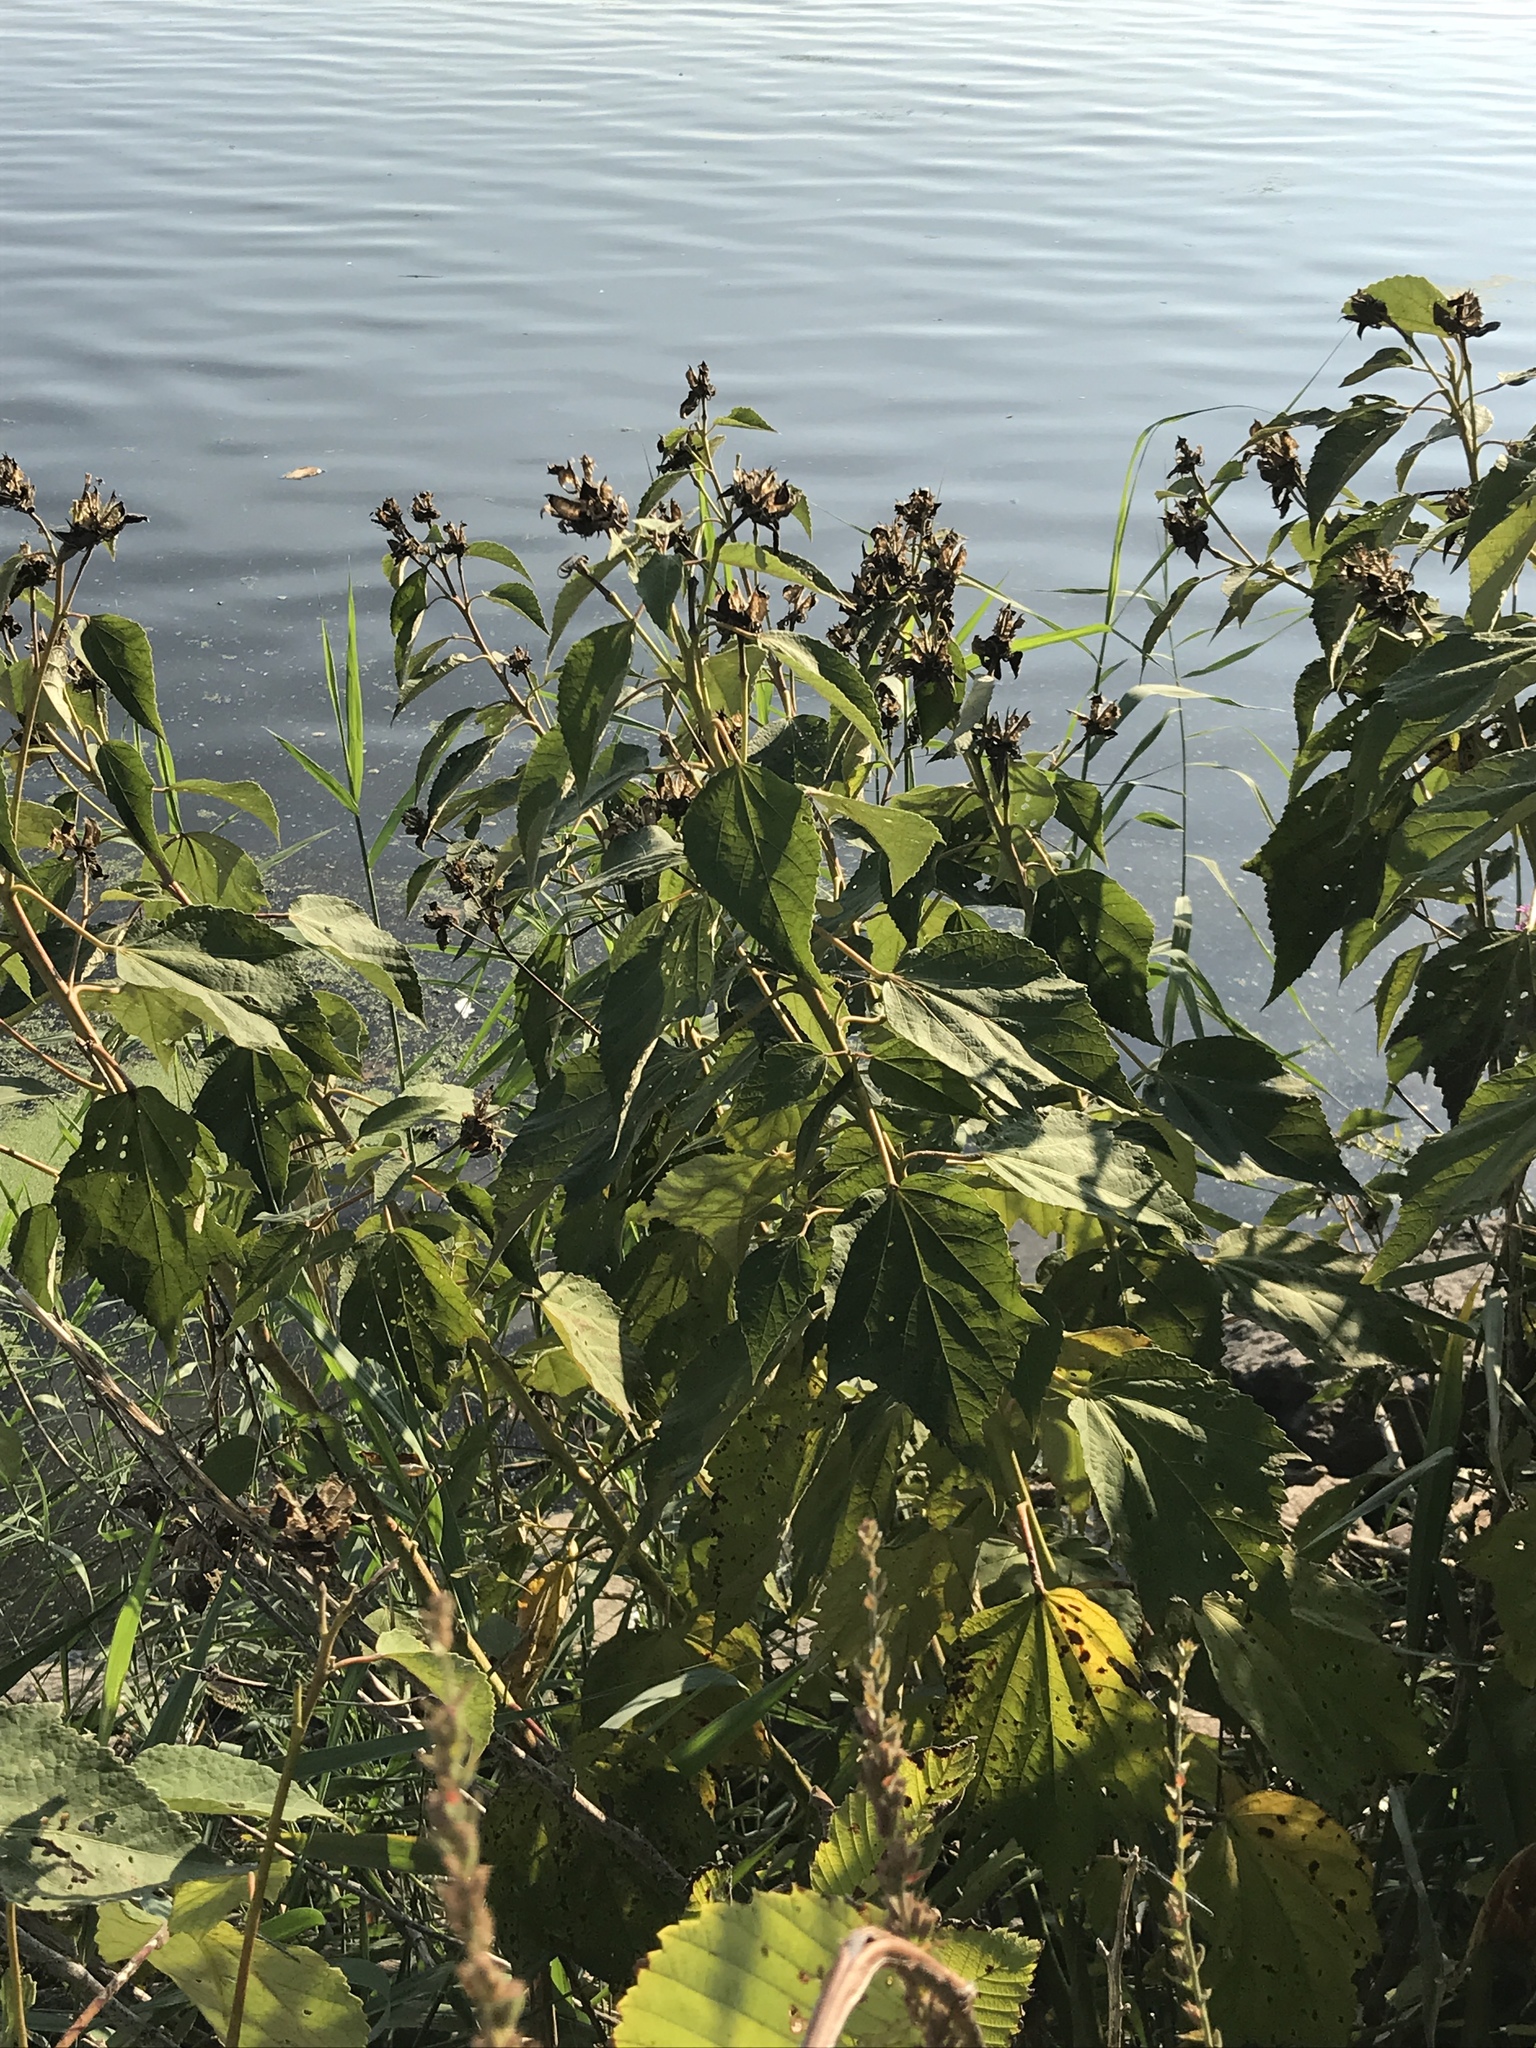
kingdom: Plantae
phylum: Tracheophyta
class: Magnoliopsida
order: Malvales
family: Malvaceae
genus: Hibiscus
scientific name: Hibiscus moscheutos
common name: Common rose-mallow
